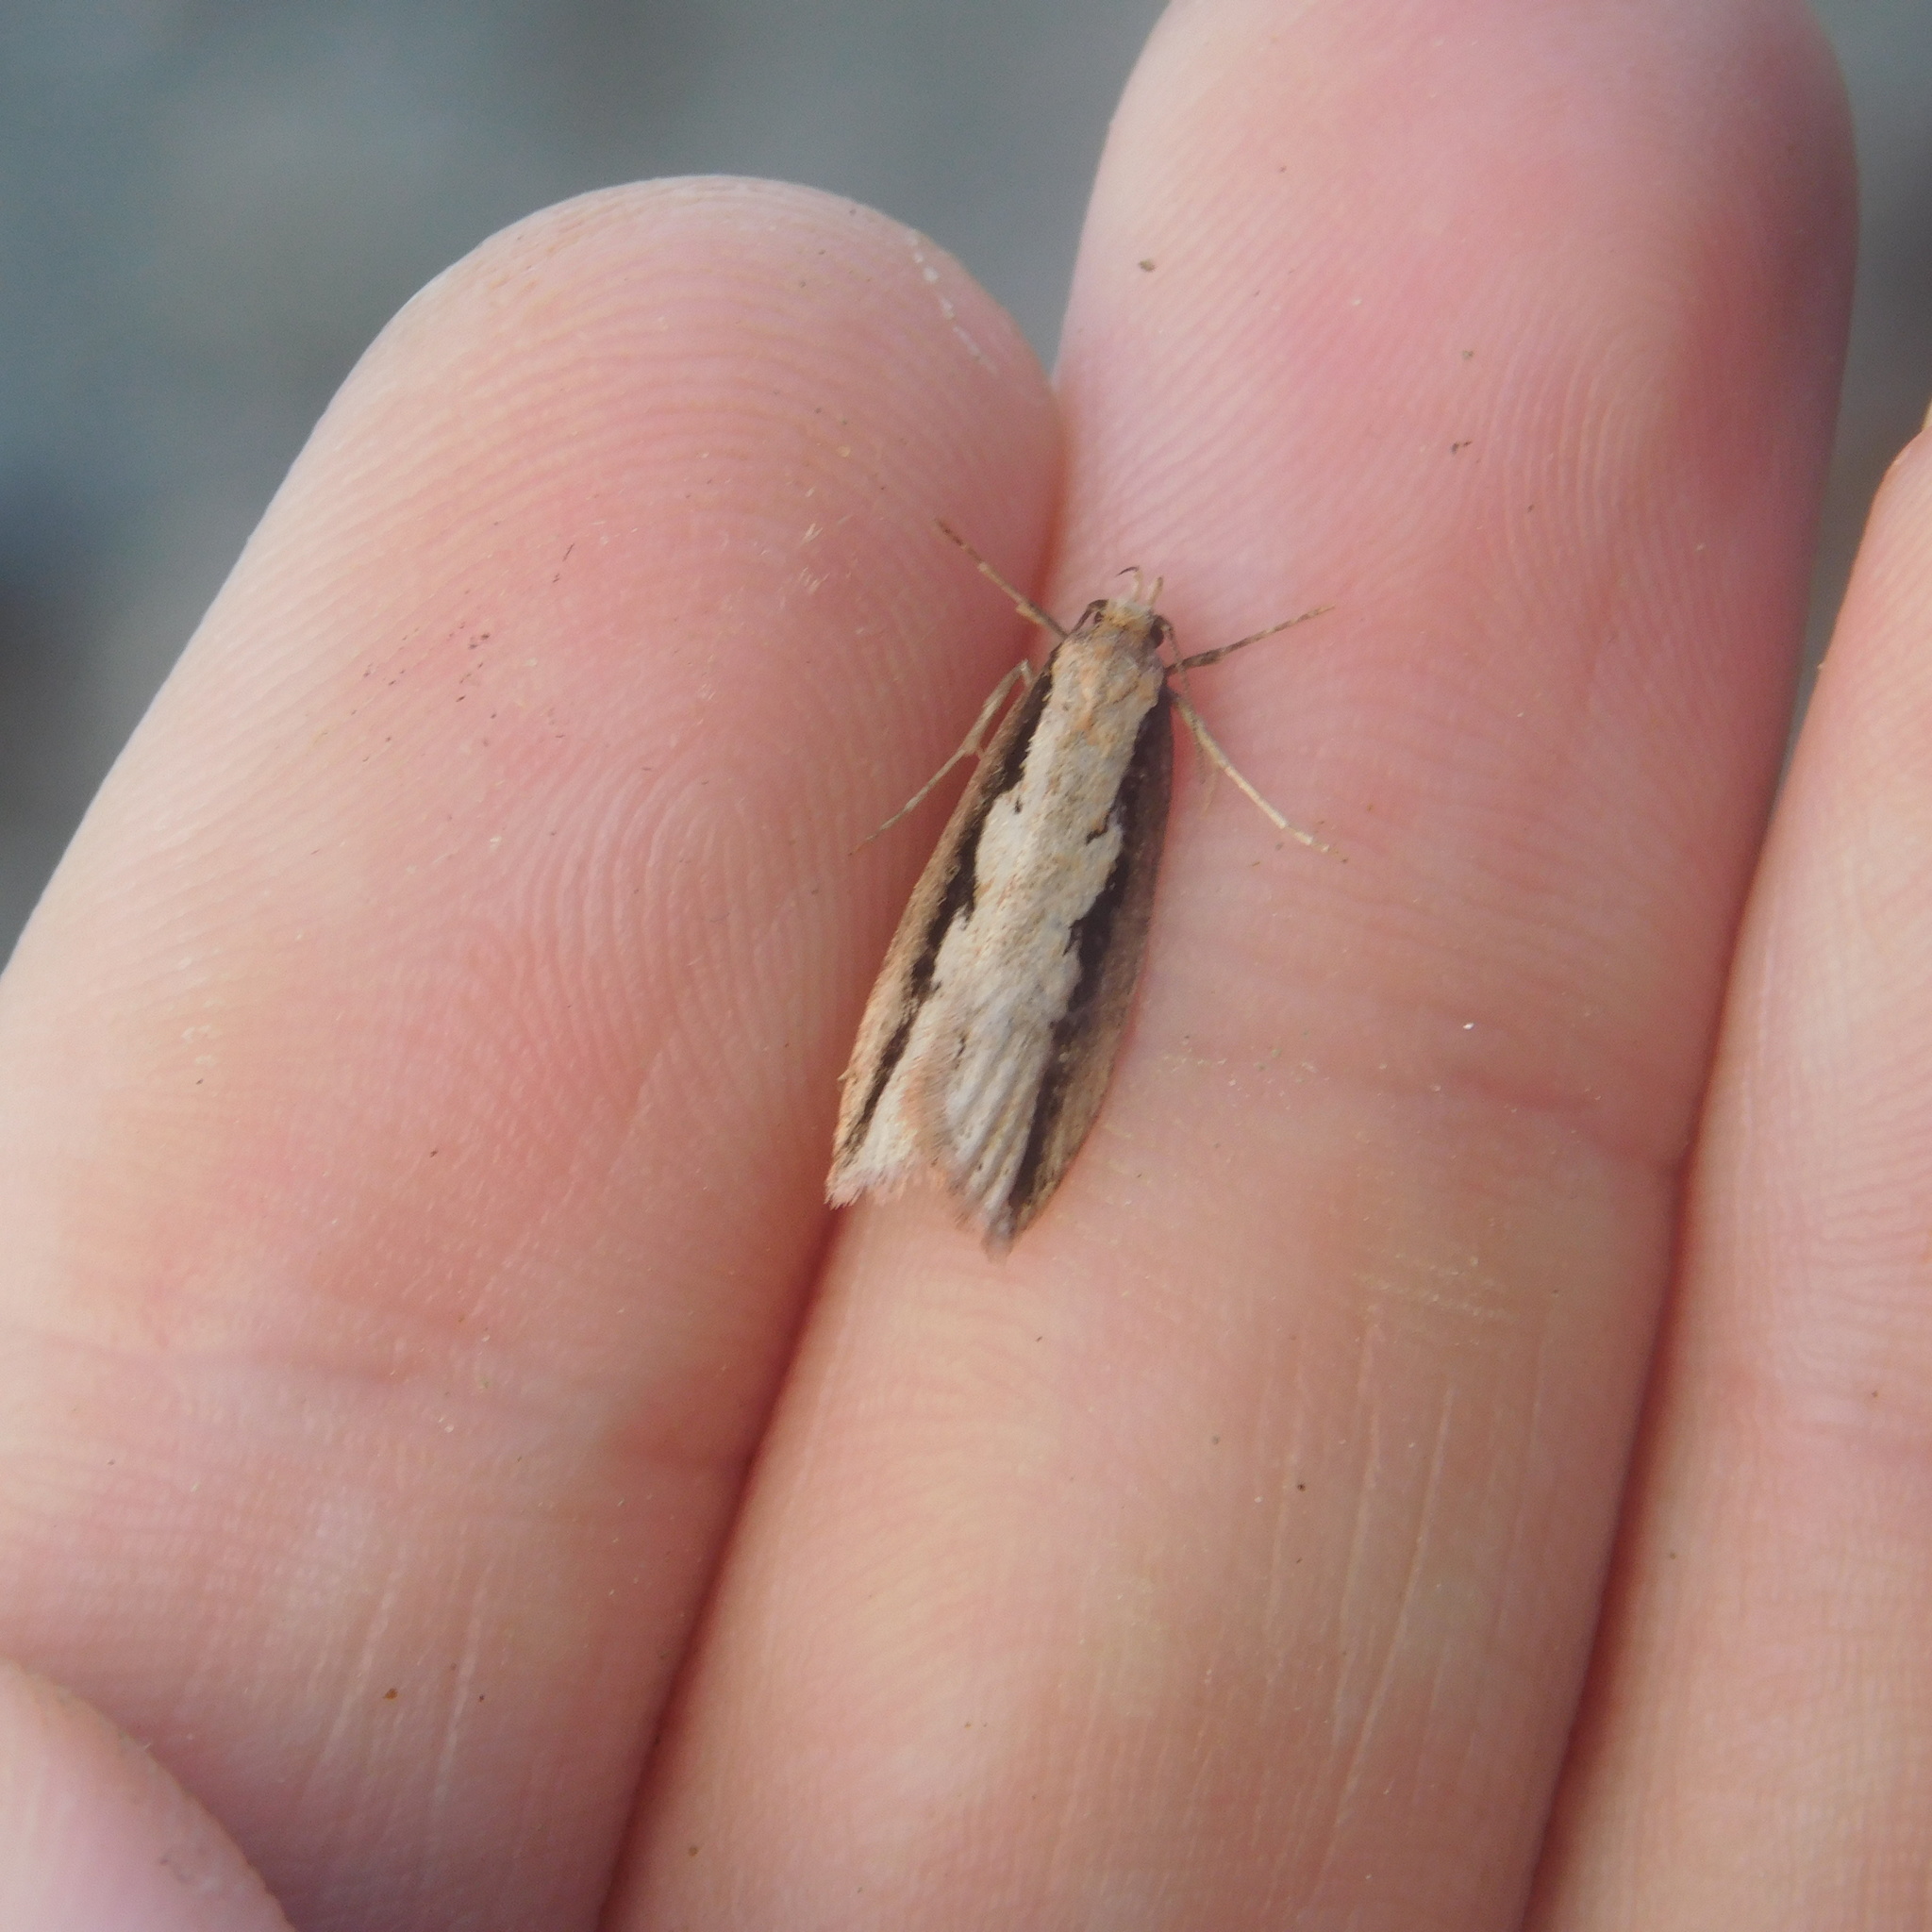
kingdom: Animalia
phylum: Arthropoda
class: Insecta
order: Lepidoptera
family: Oecophoridae
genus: Leptocroca
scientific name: Leptocroca sanguinolenta
